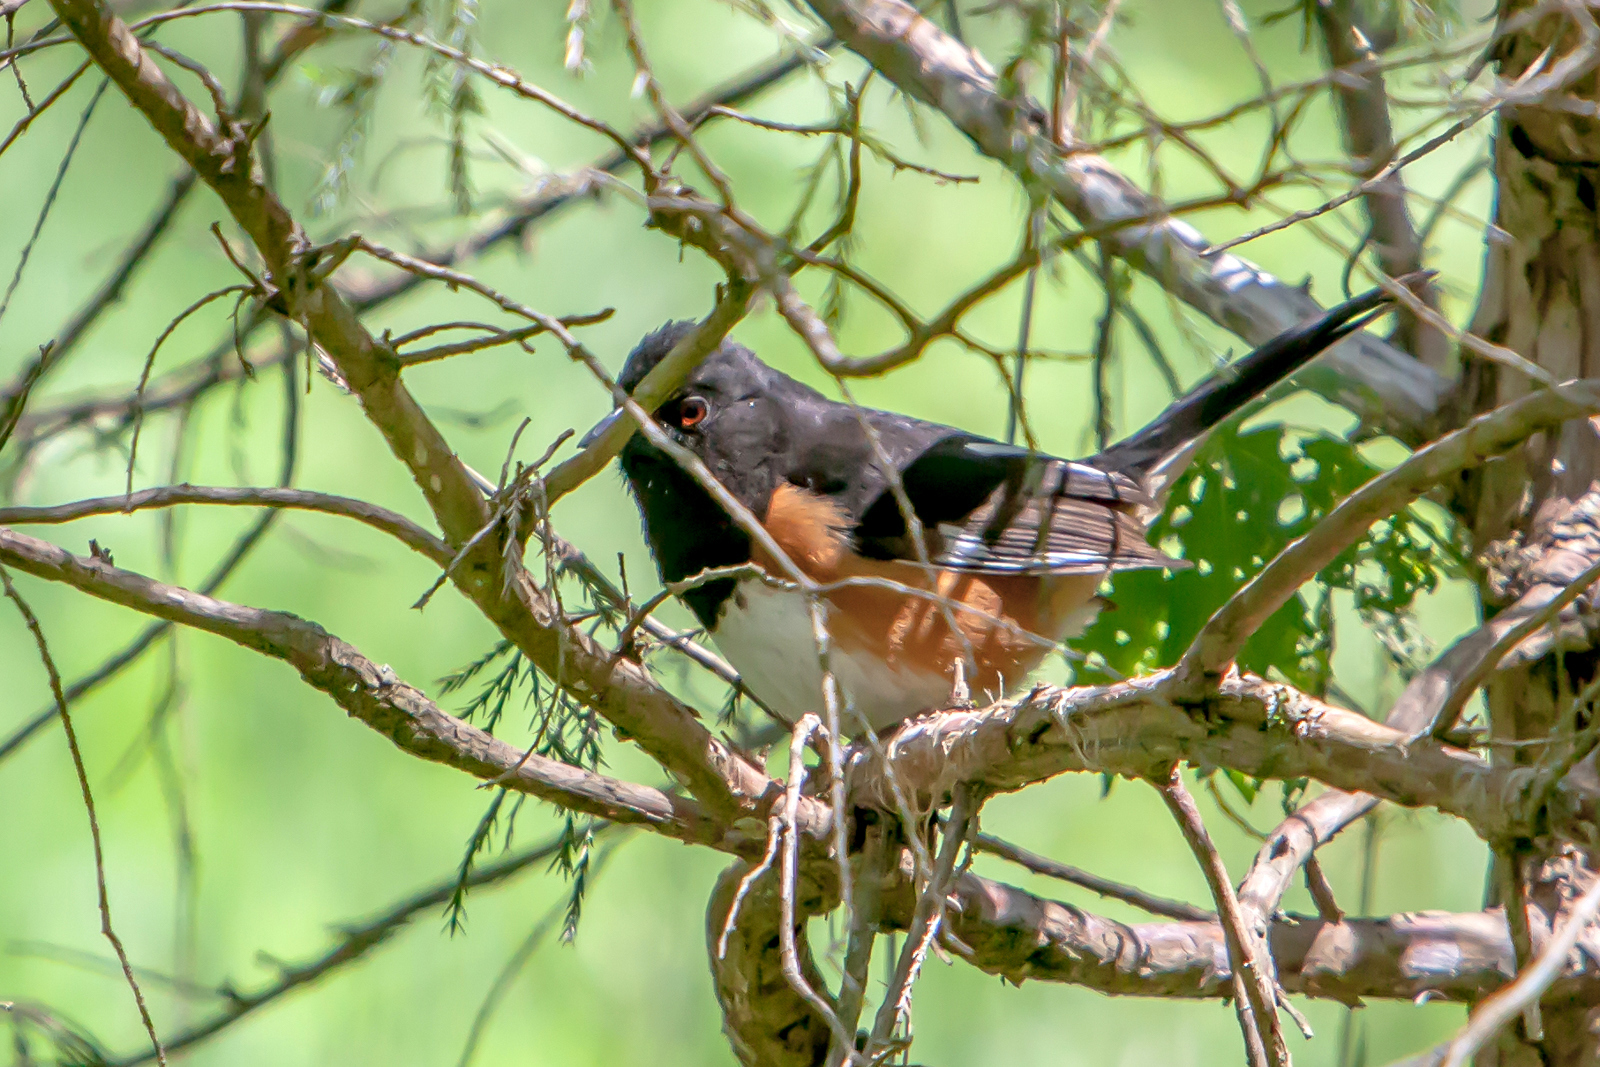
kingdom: Animalia
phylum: Chordata
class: Aves
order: Passeriformes
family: Passerellidae
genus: Pipilo
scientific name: Pipilo erythrophthalmus
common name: Eastern towhee
